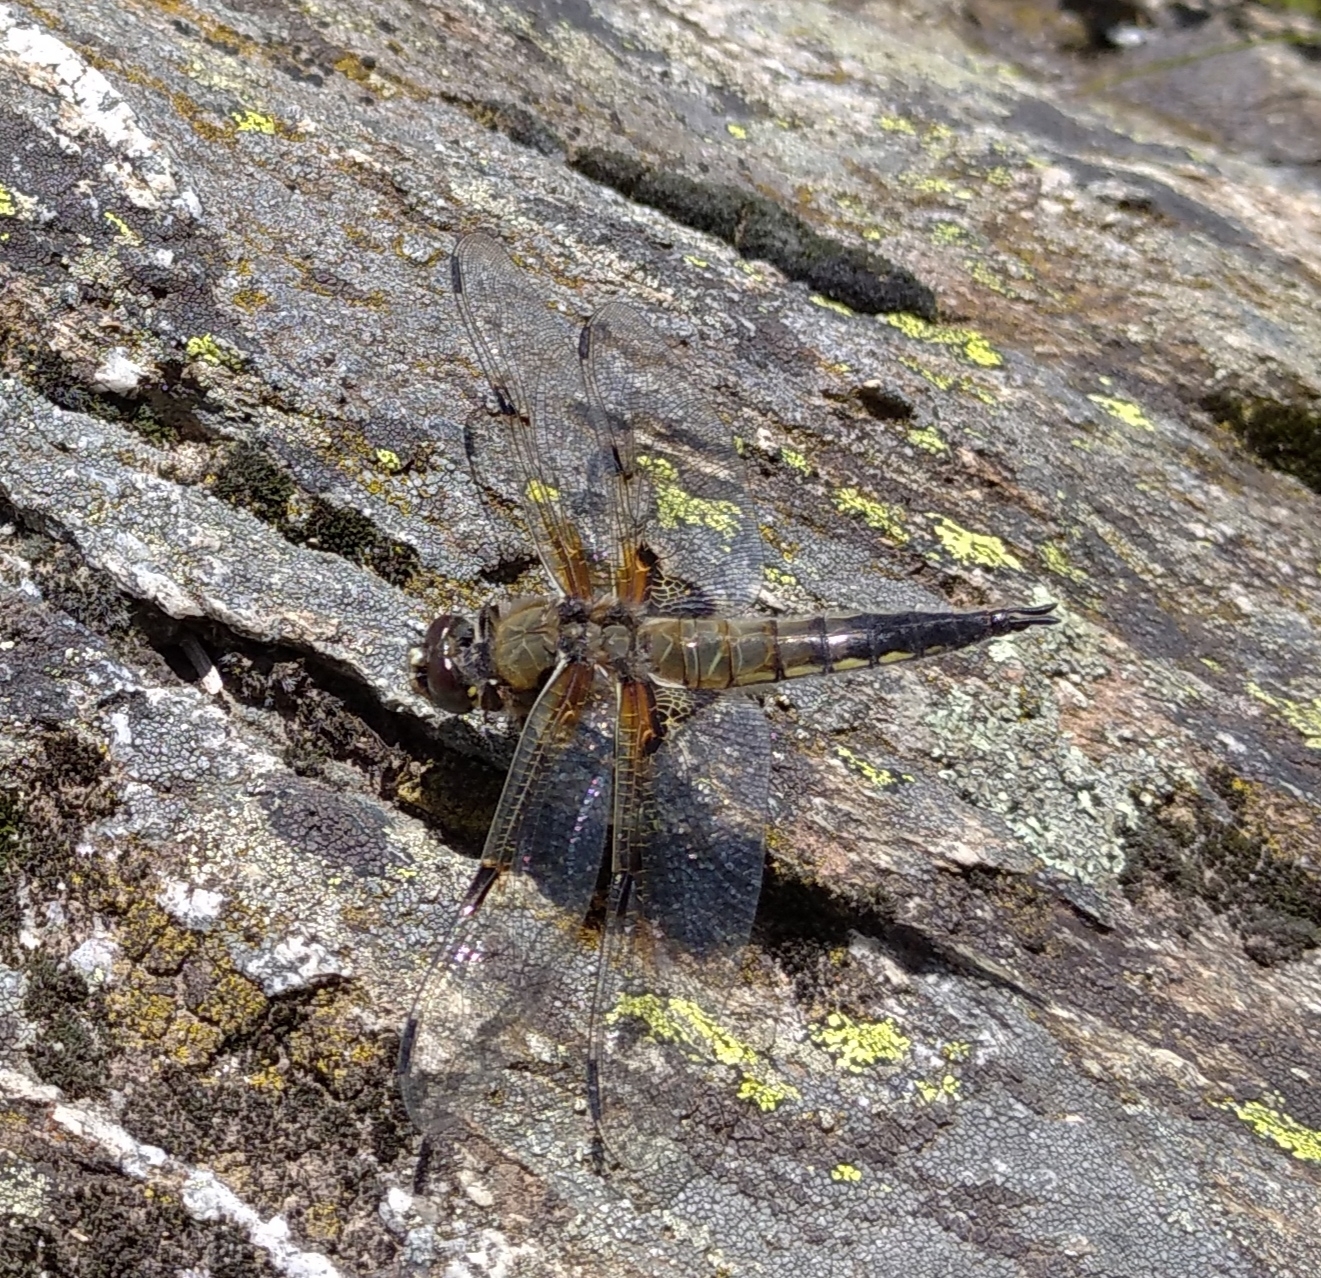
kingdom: Animalia
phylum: Arthropoda
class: Insecta
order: Odonata
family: Libellulidae
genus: Libellula
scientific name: Libellula quadrimaculata
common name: Four-spotted chaser
